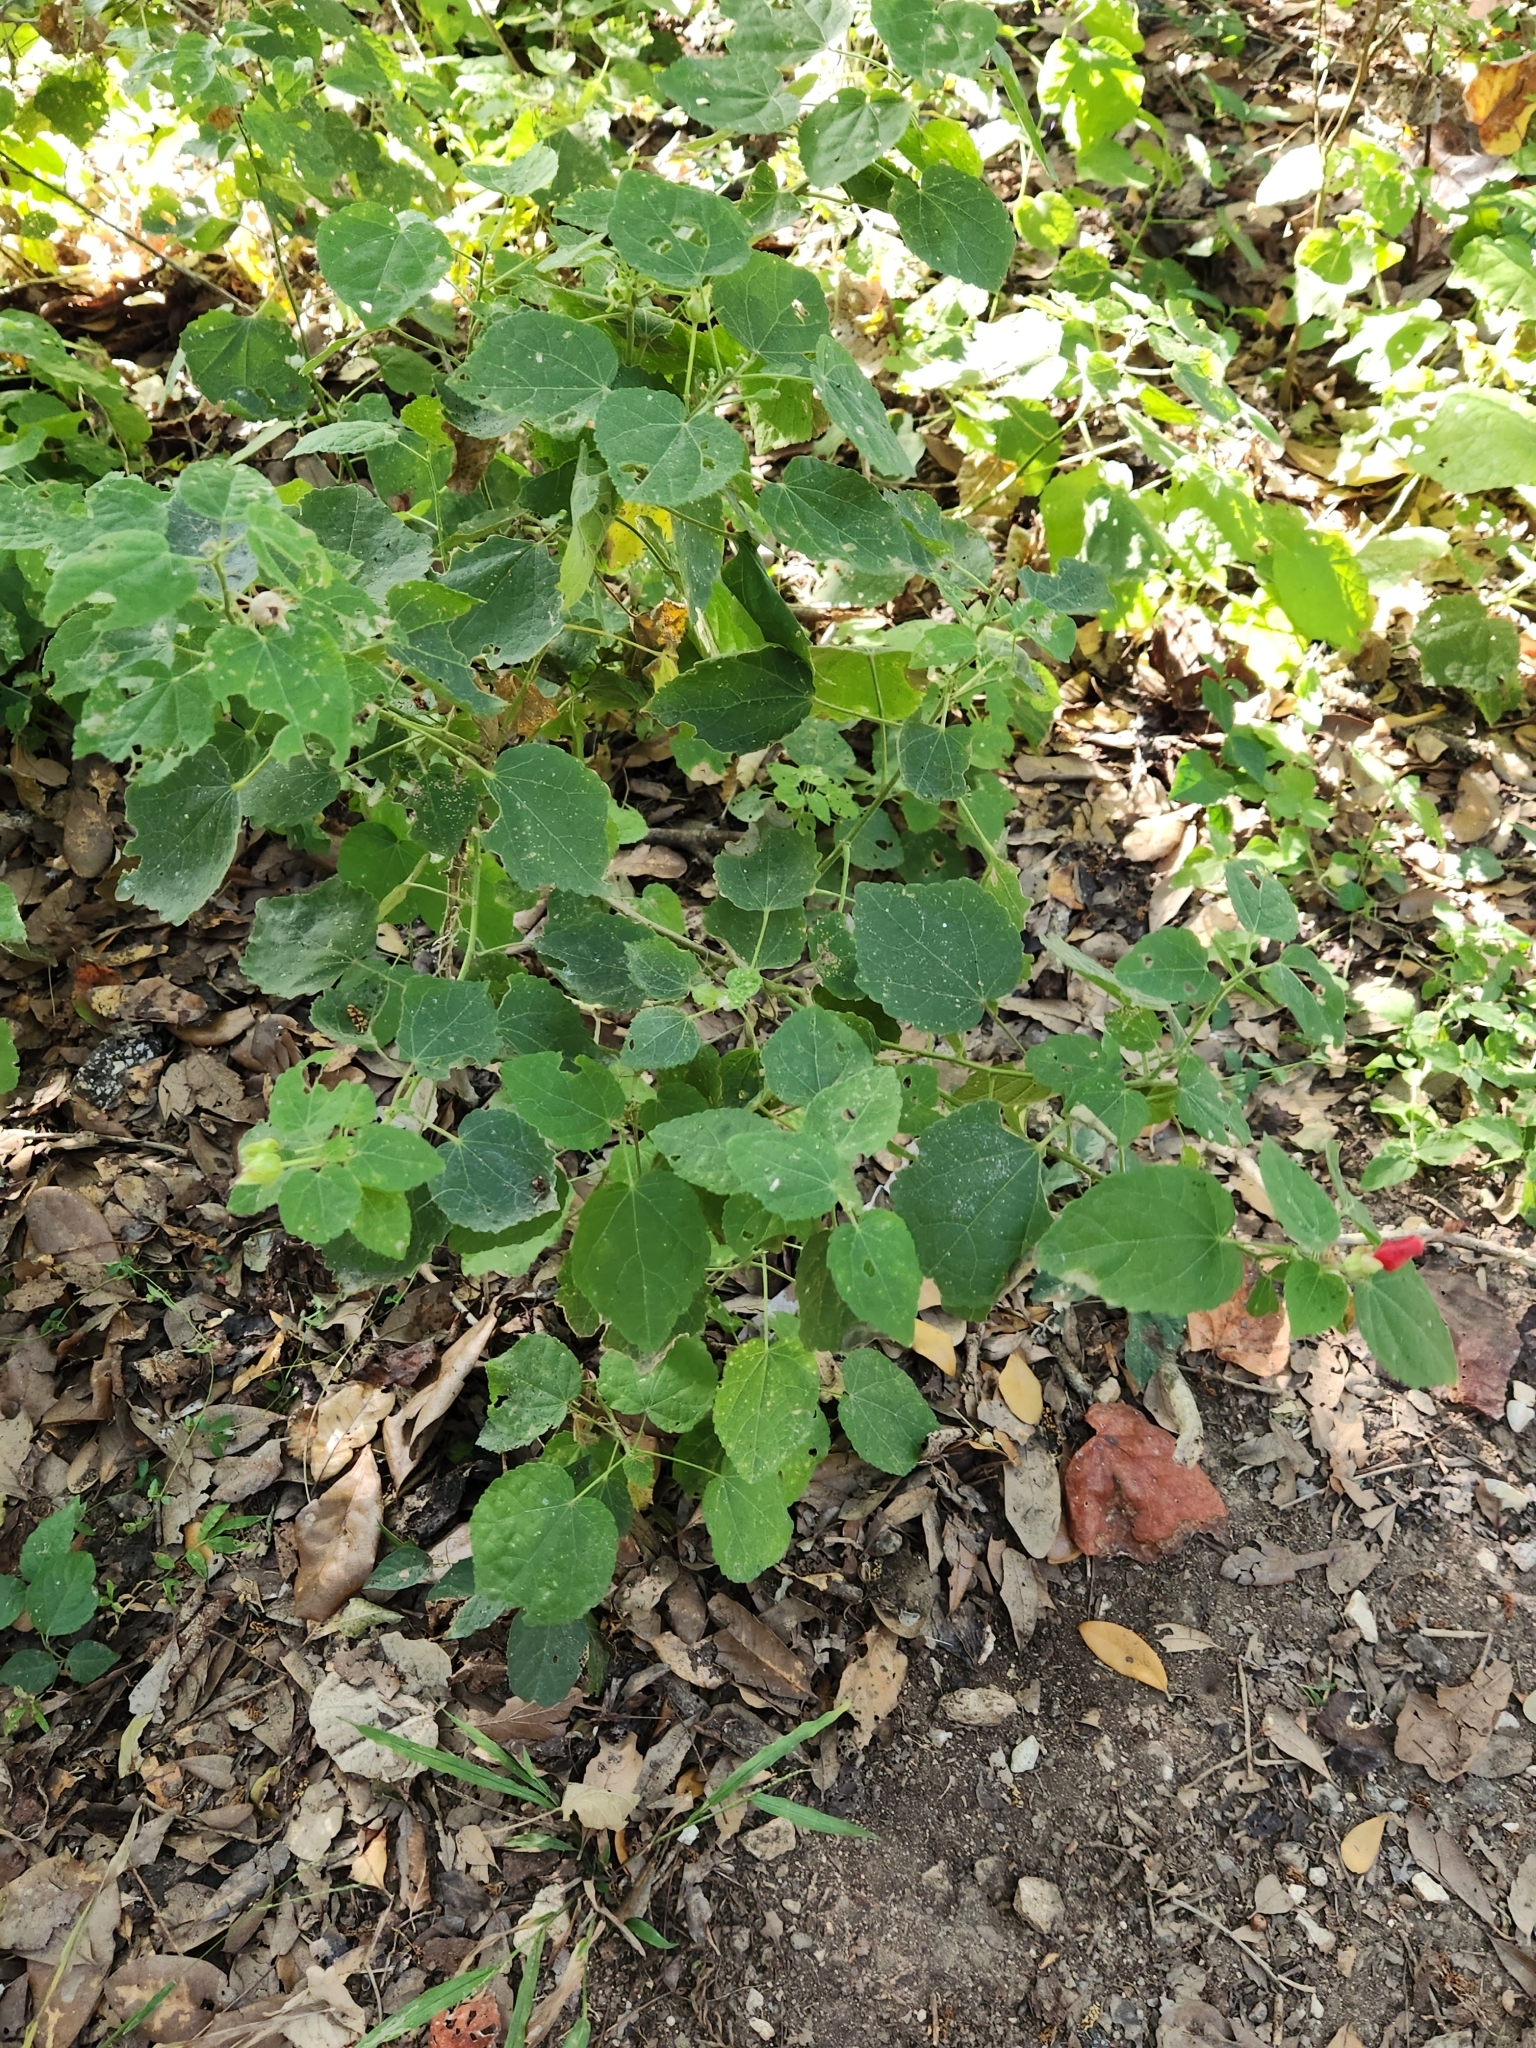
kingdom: Plantae
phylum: Tracheophyta
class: Magnoliopsida
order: Malvales
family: Malvaceae
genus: Malvaviscus
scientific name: Malvaviscus arboreus
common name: Wax mallow
